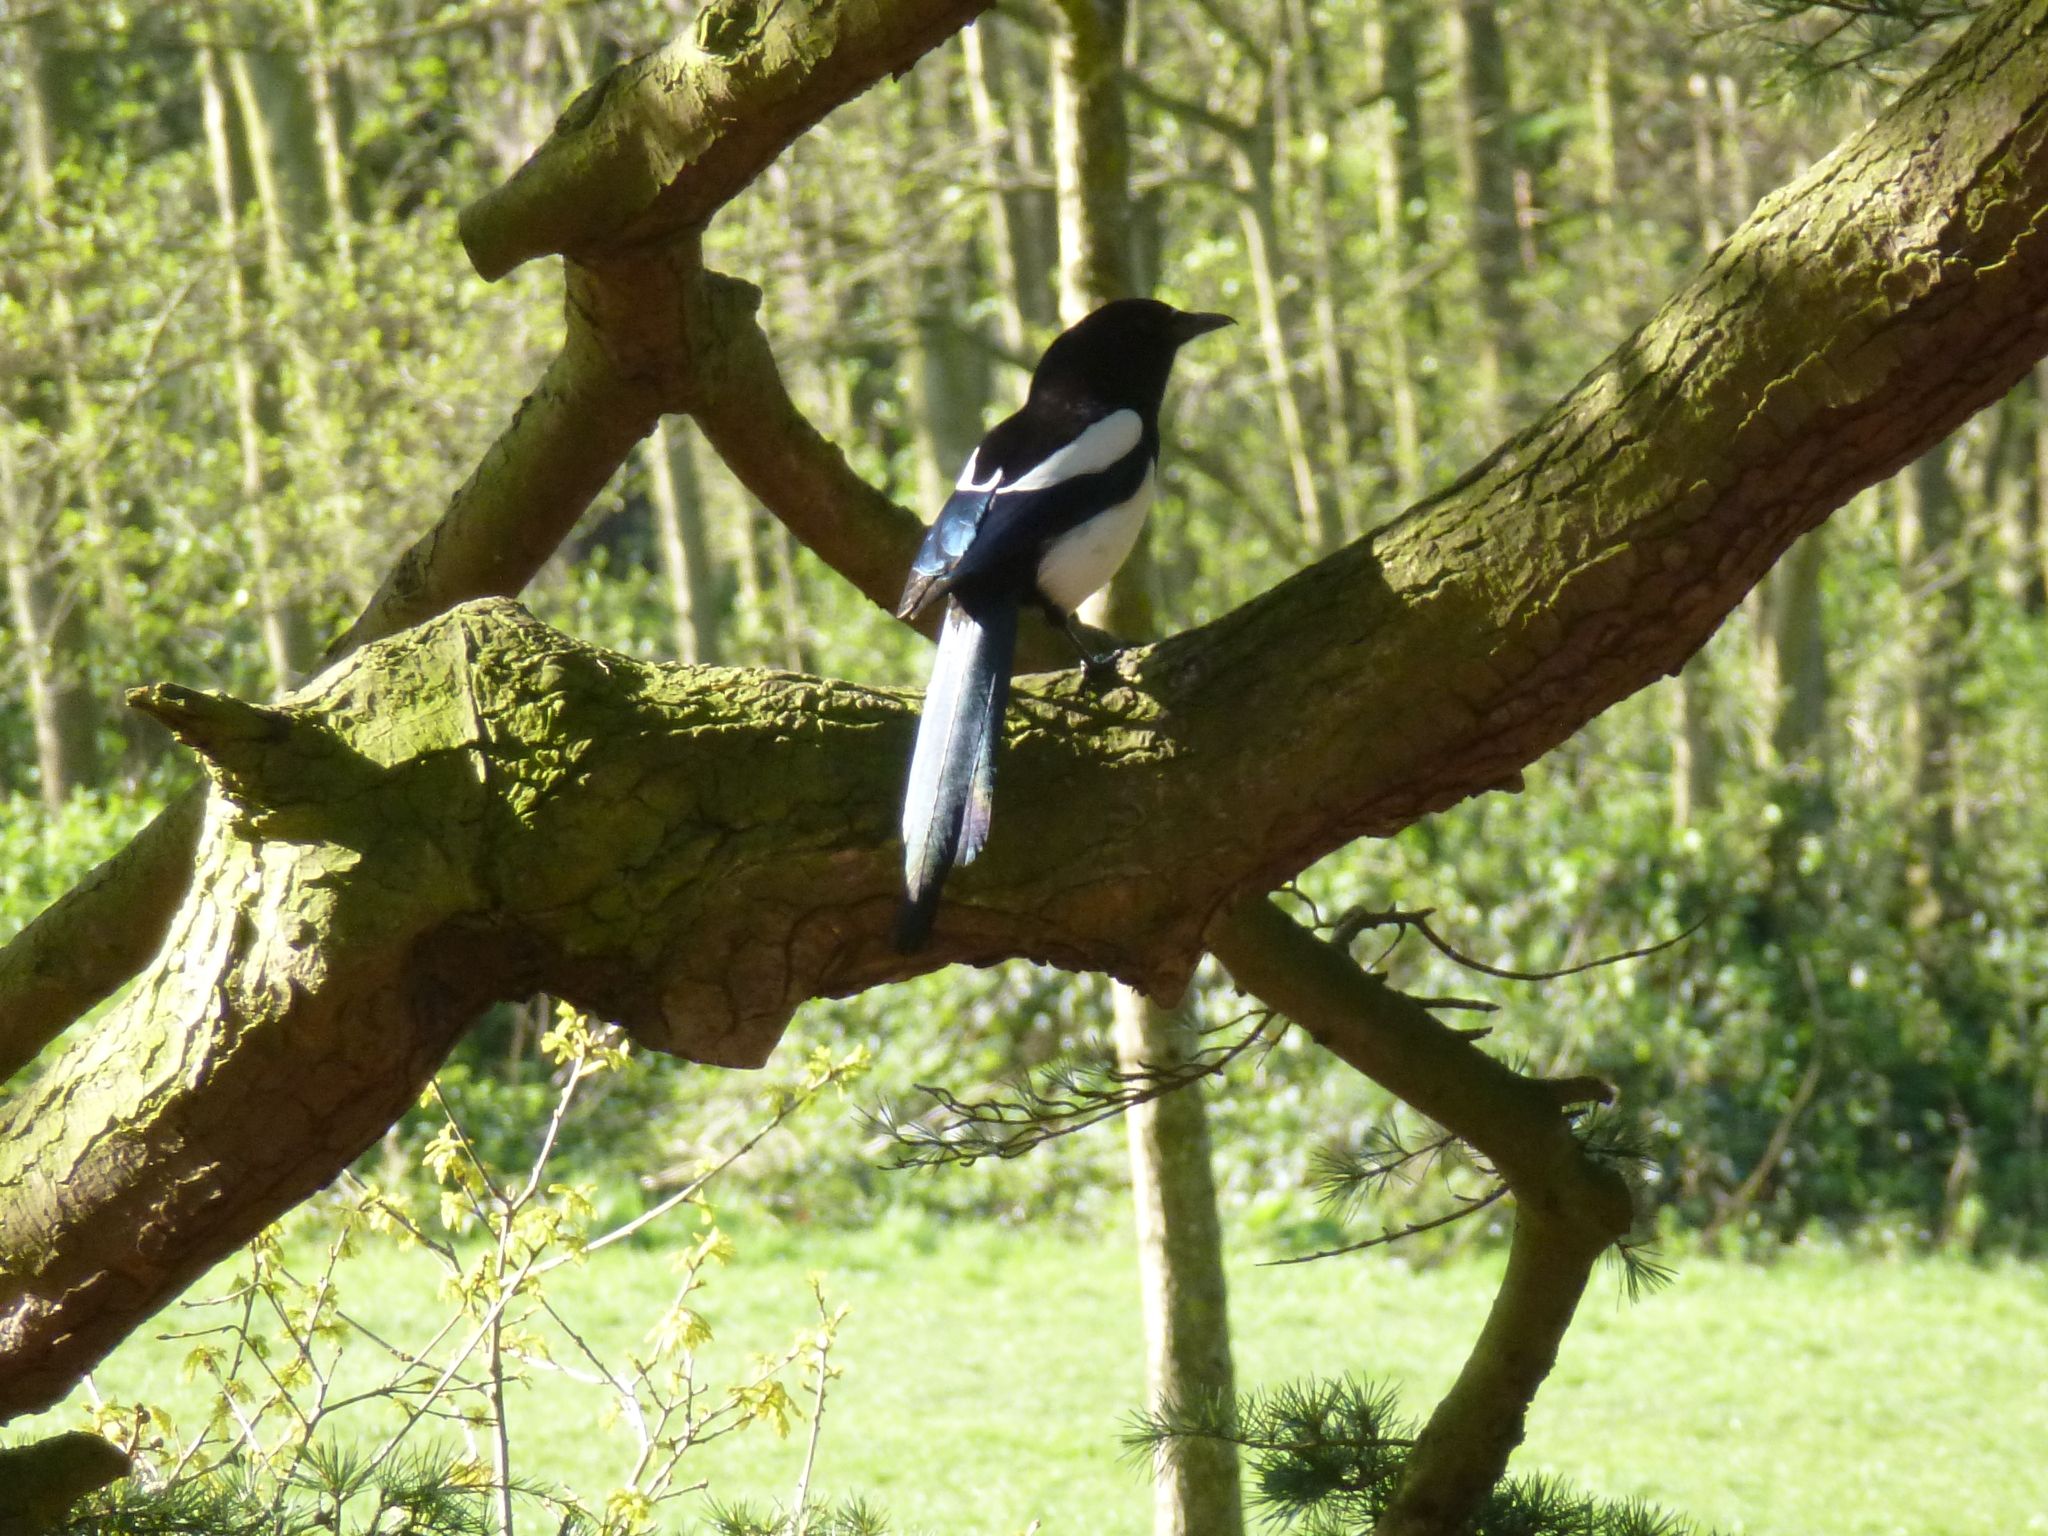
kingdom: Animalia
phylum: Chordata
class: Aves
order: Passeriformes
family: Corvidae
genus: Pica
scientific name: Pica pica
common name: Eurasian magpie
